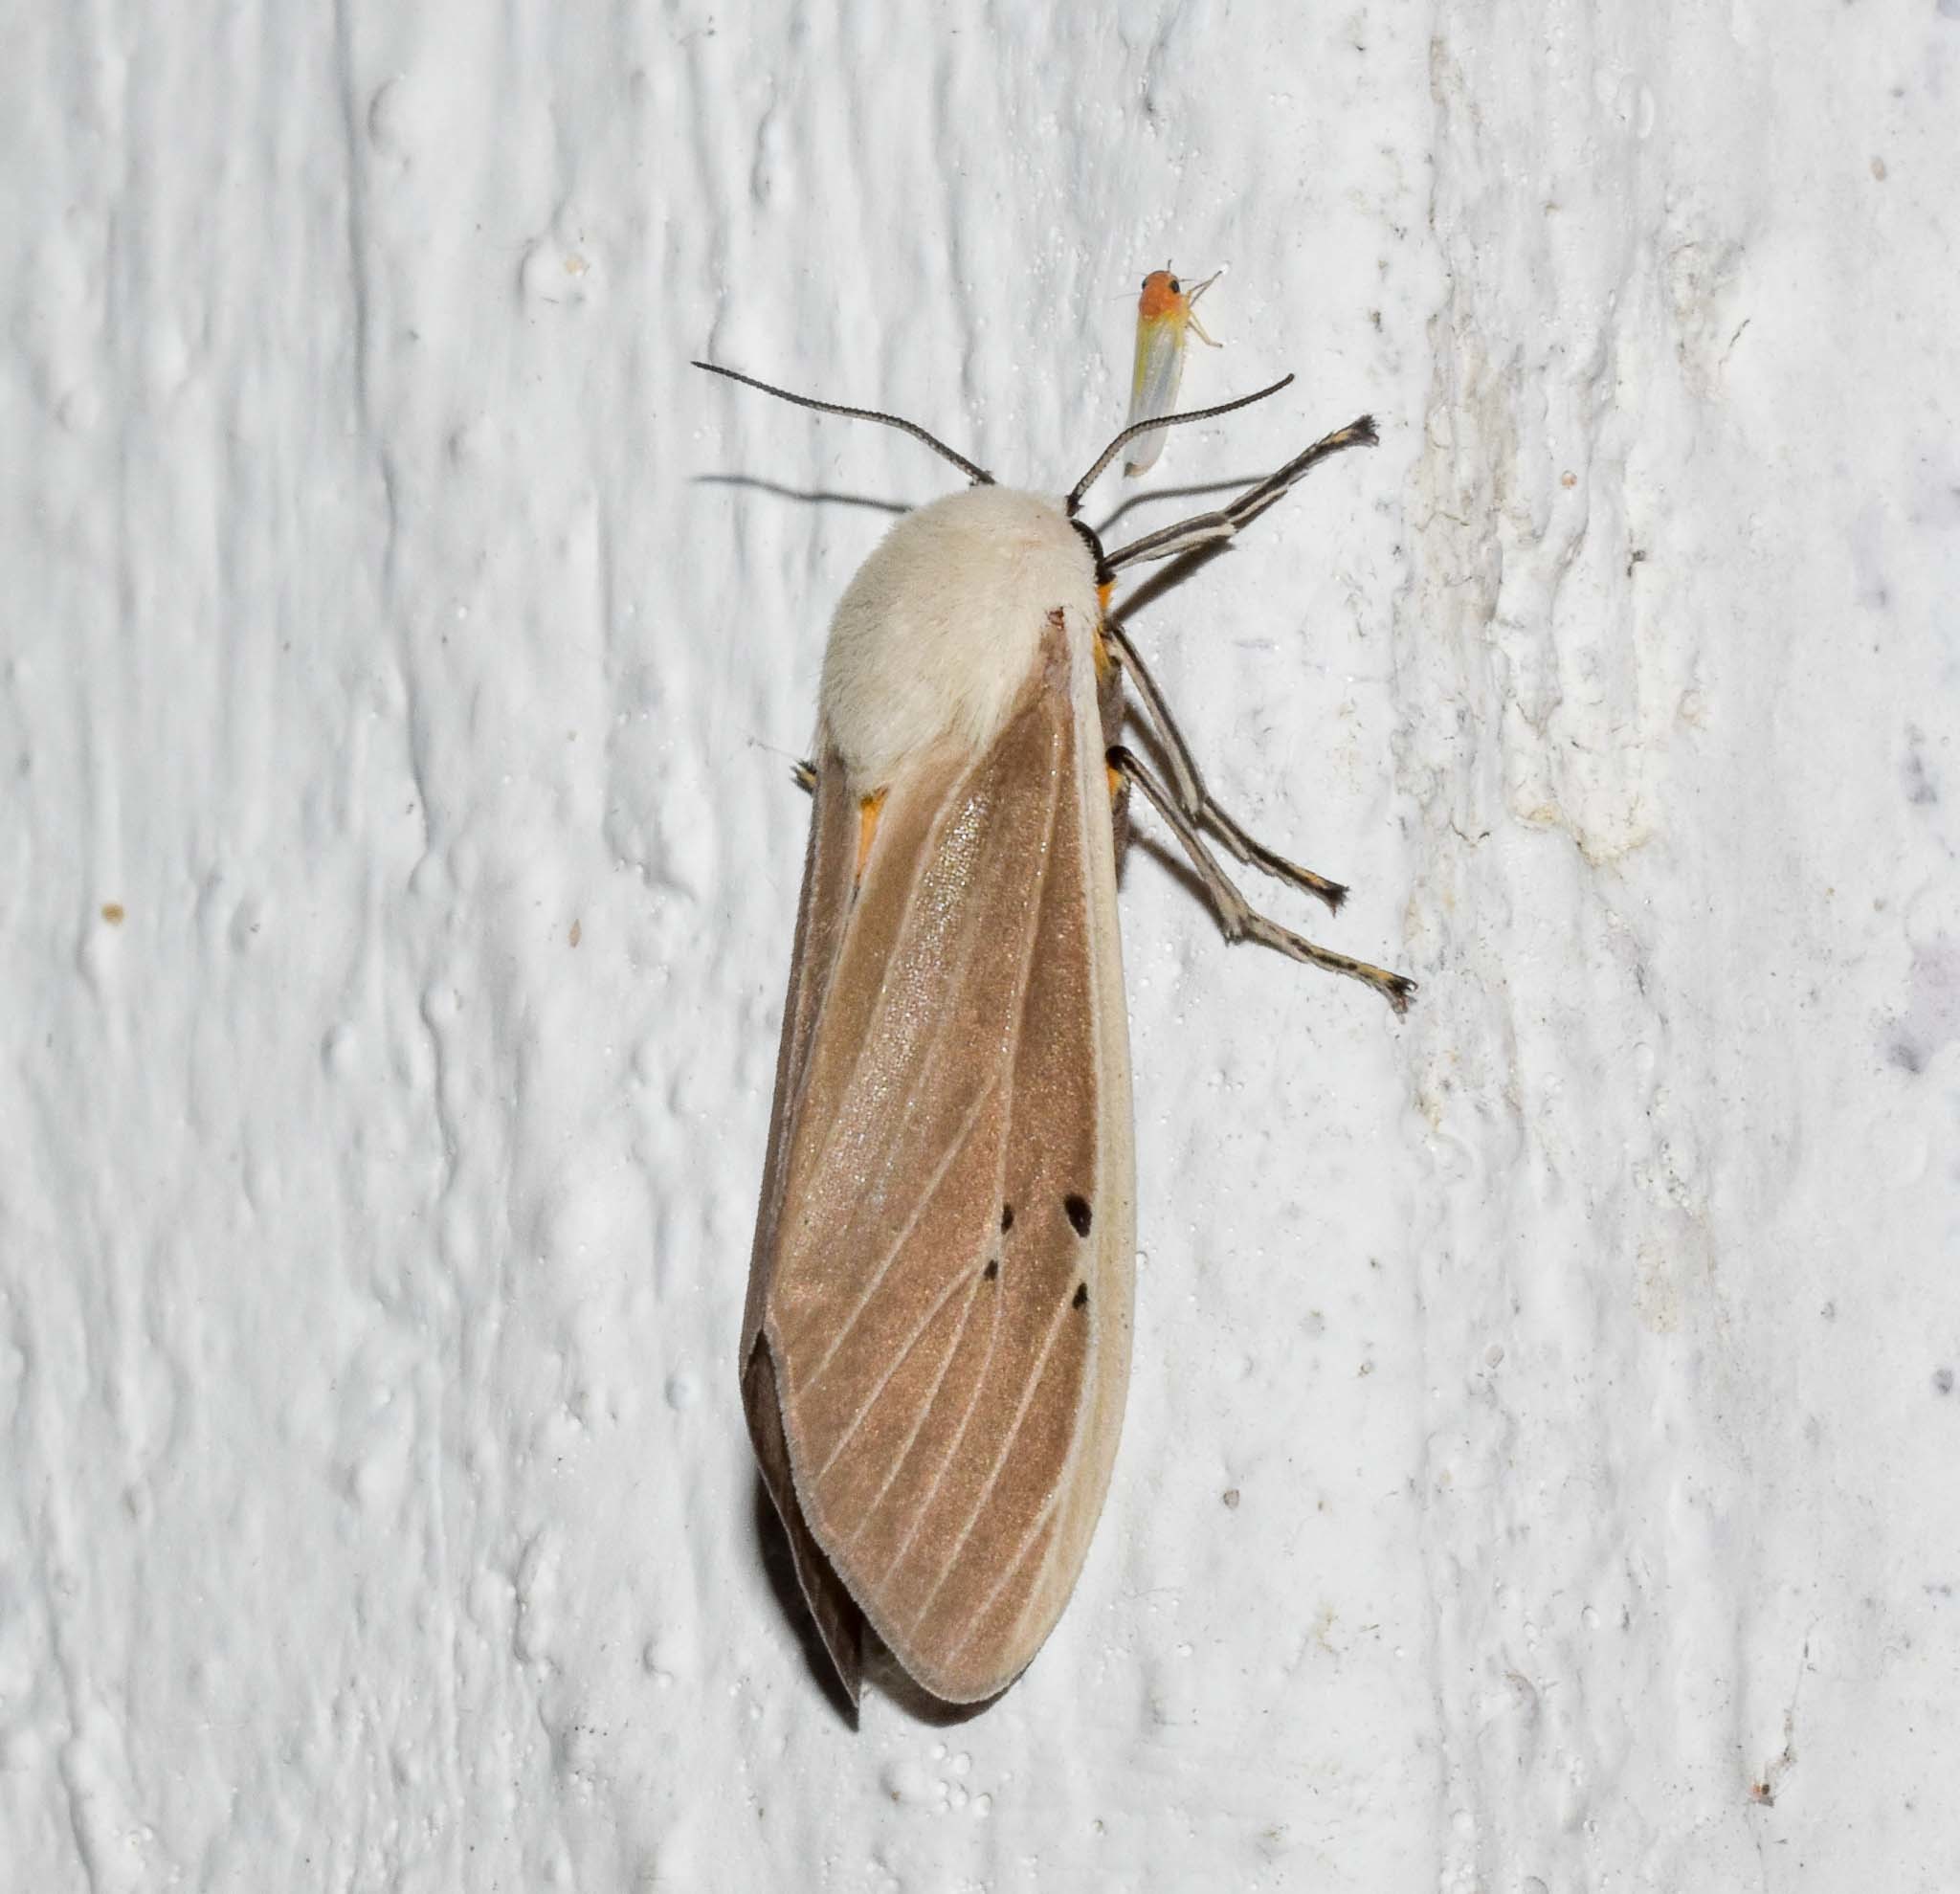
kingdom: Animalia
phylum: Arthropoda
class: Insecta
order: Lepidoptera
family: Erebidae
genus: Creatonotos
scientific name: Creatonotos transiens
